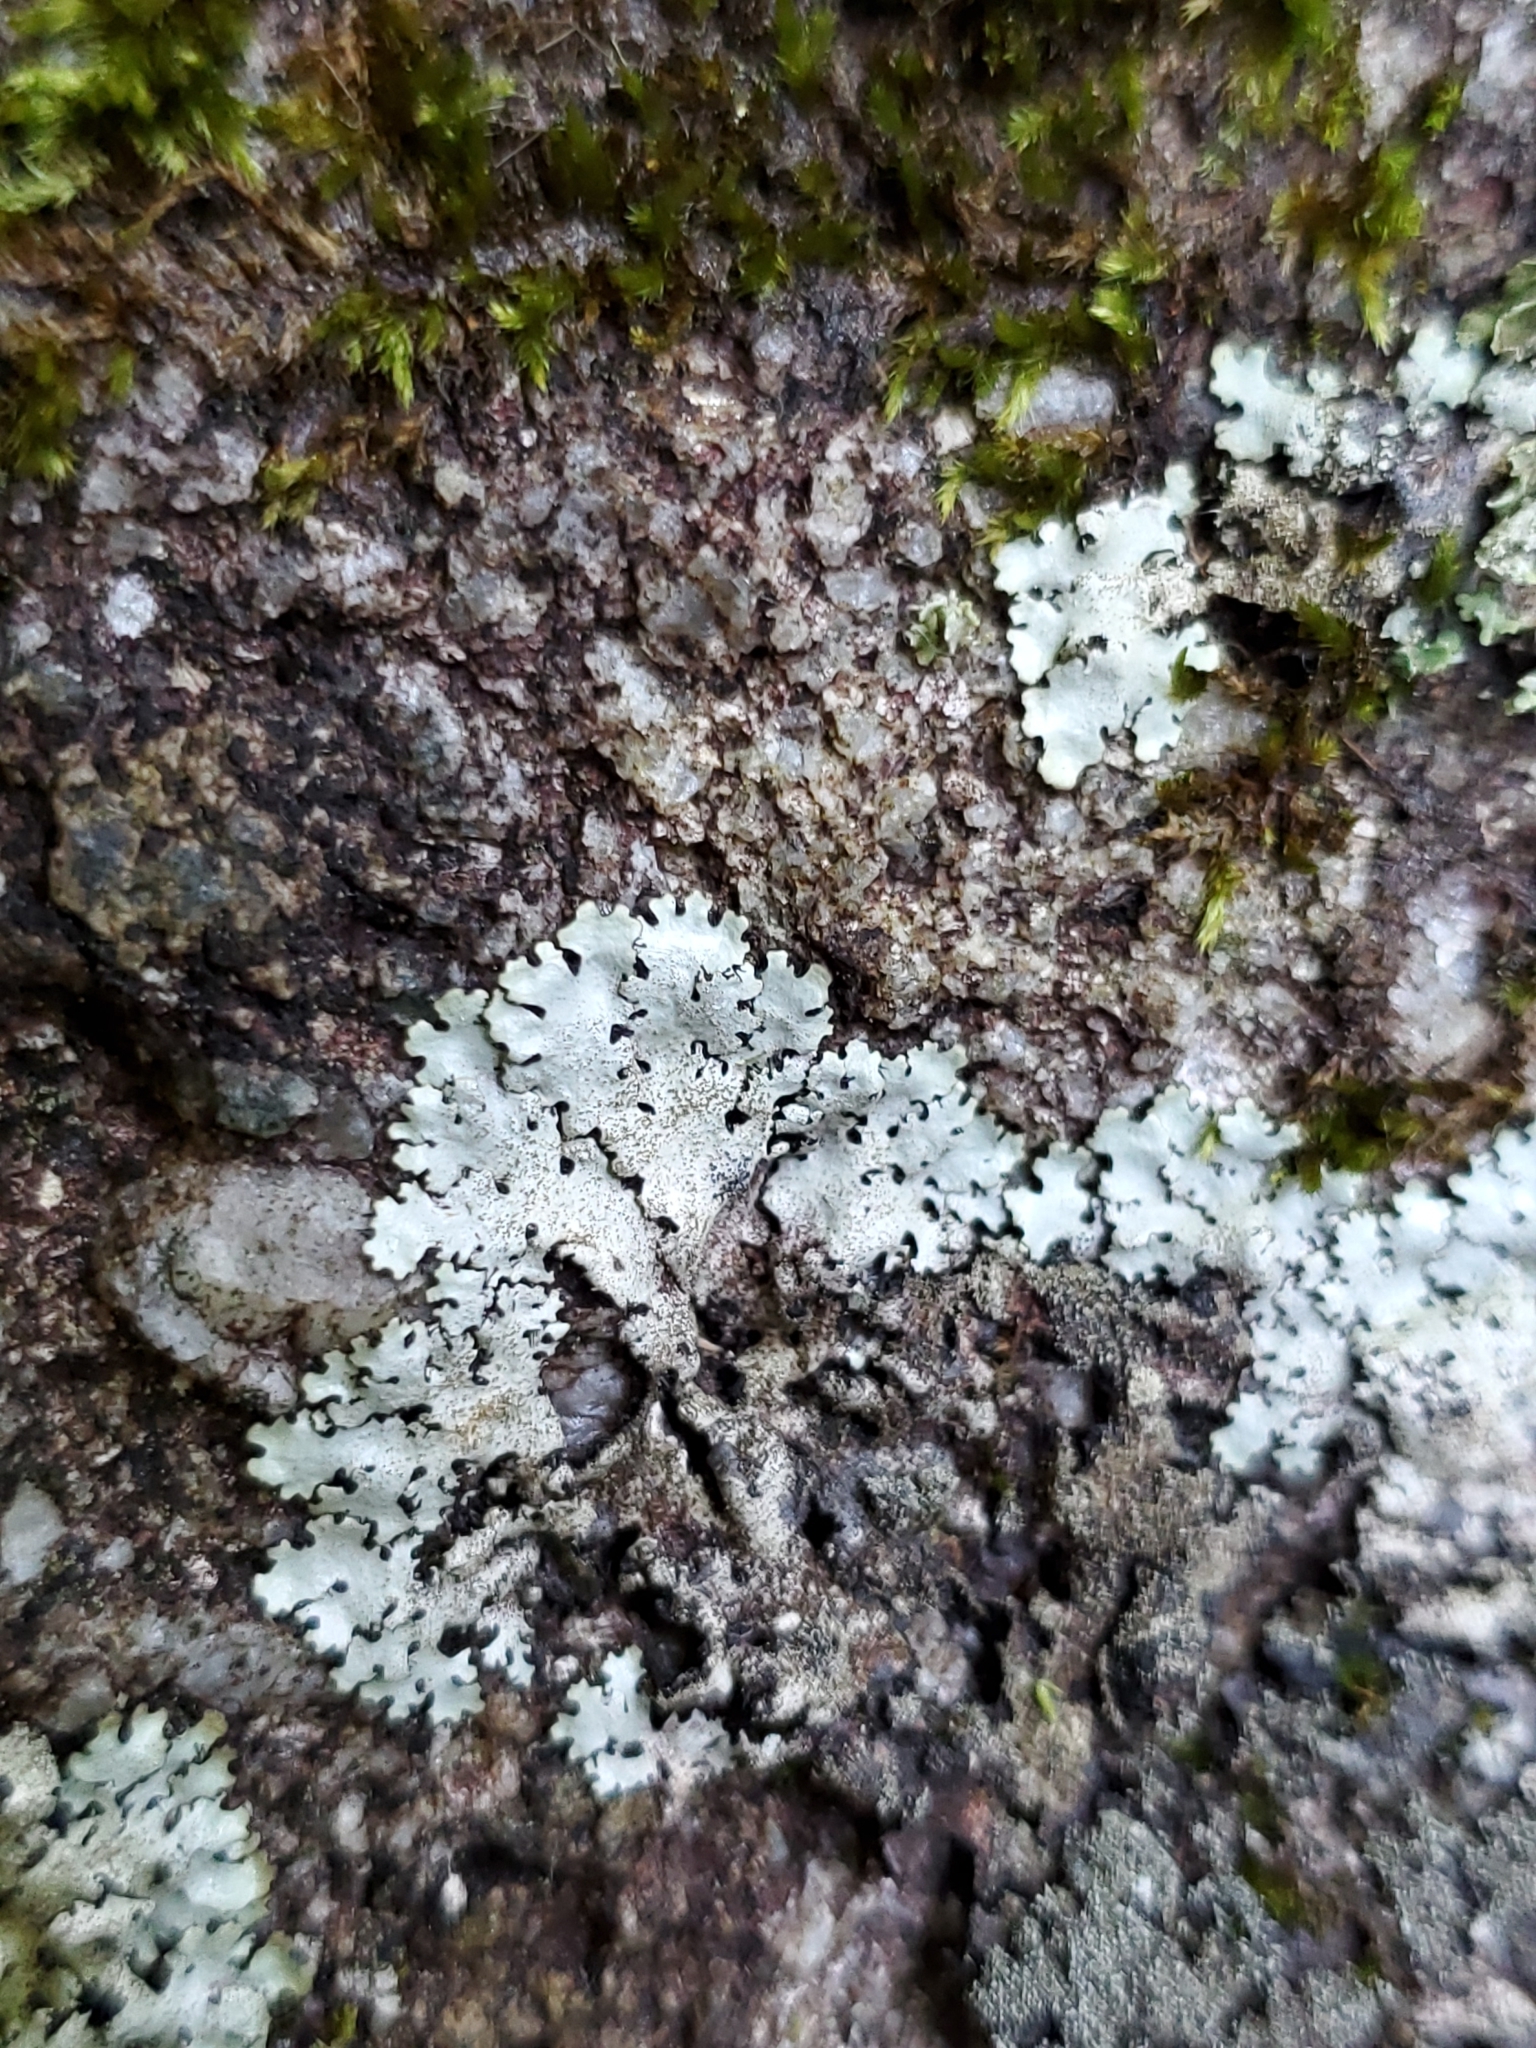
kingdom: Fungi
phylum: Ascomycota
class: Lecanoromycetes
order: Lecanorales
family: Parmeliaceae
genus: Hypotrachyna
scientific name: Hypotrachyna minarum
